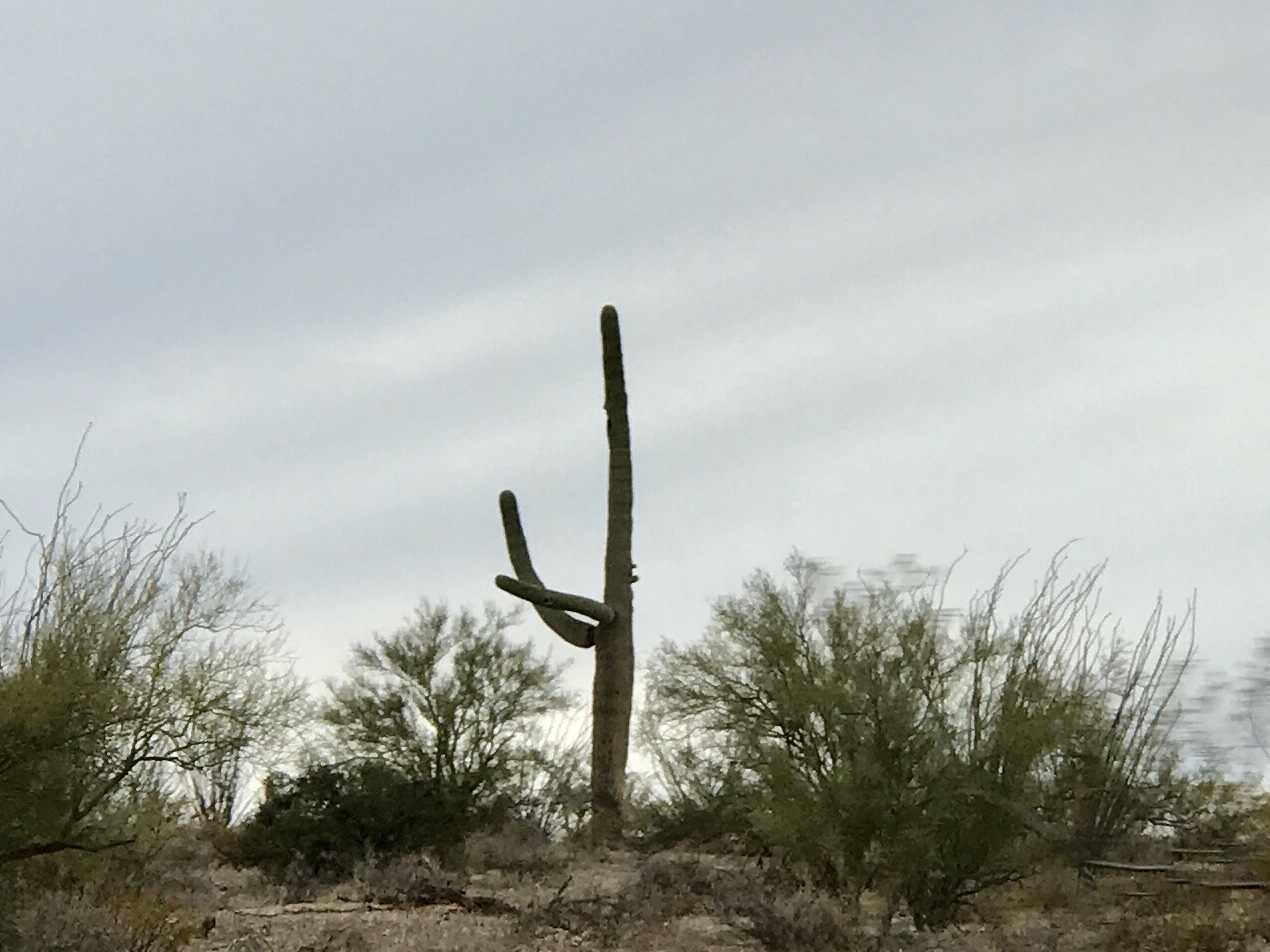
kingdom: Plantae
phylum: Tracheophyta
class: Magnoliopsida
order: Caryophyllales
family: Cactaceae
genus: Carnegiea
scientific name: Carnegiea gigantea
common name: Saguaro
